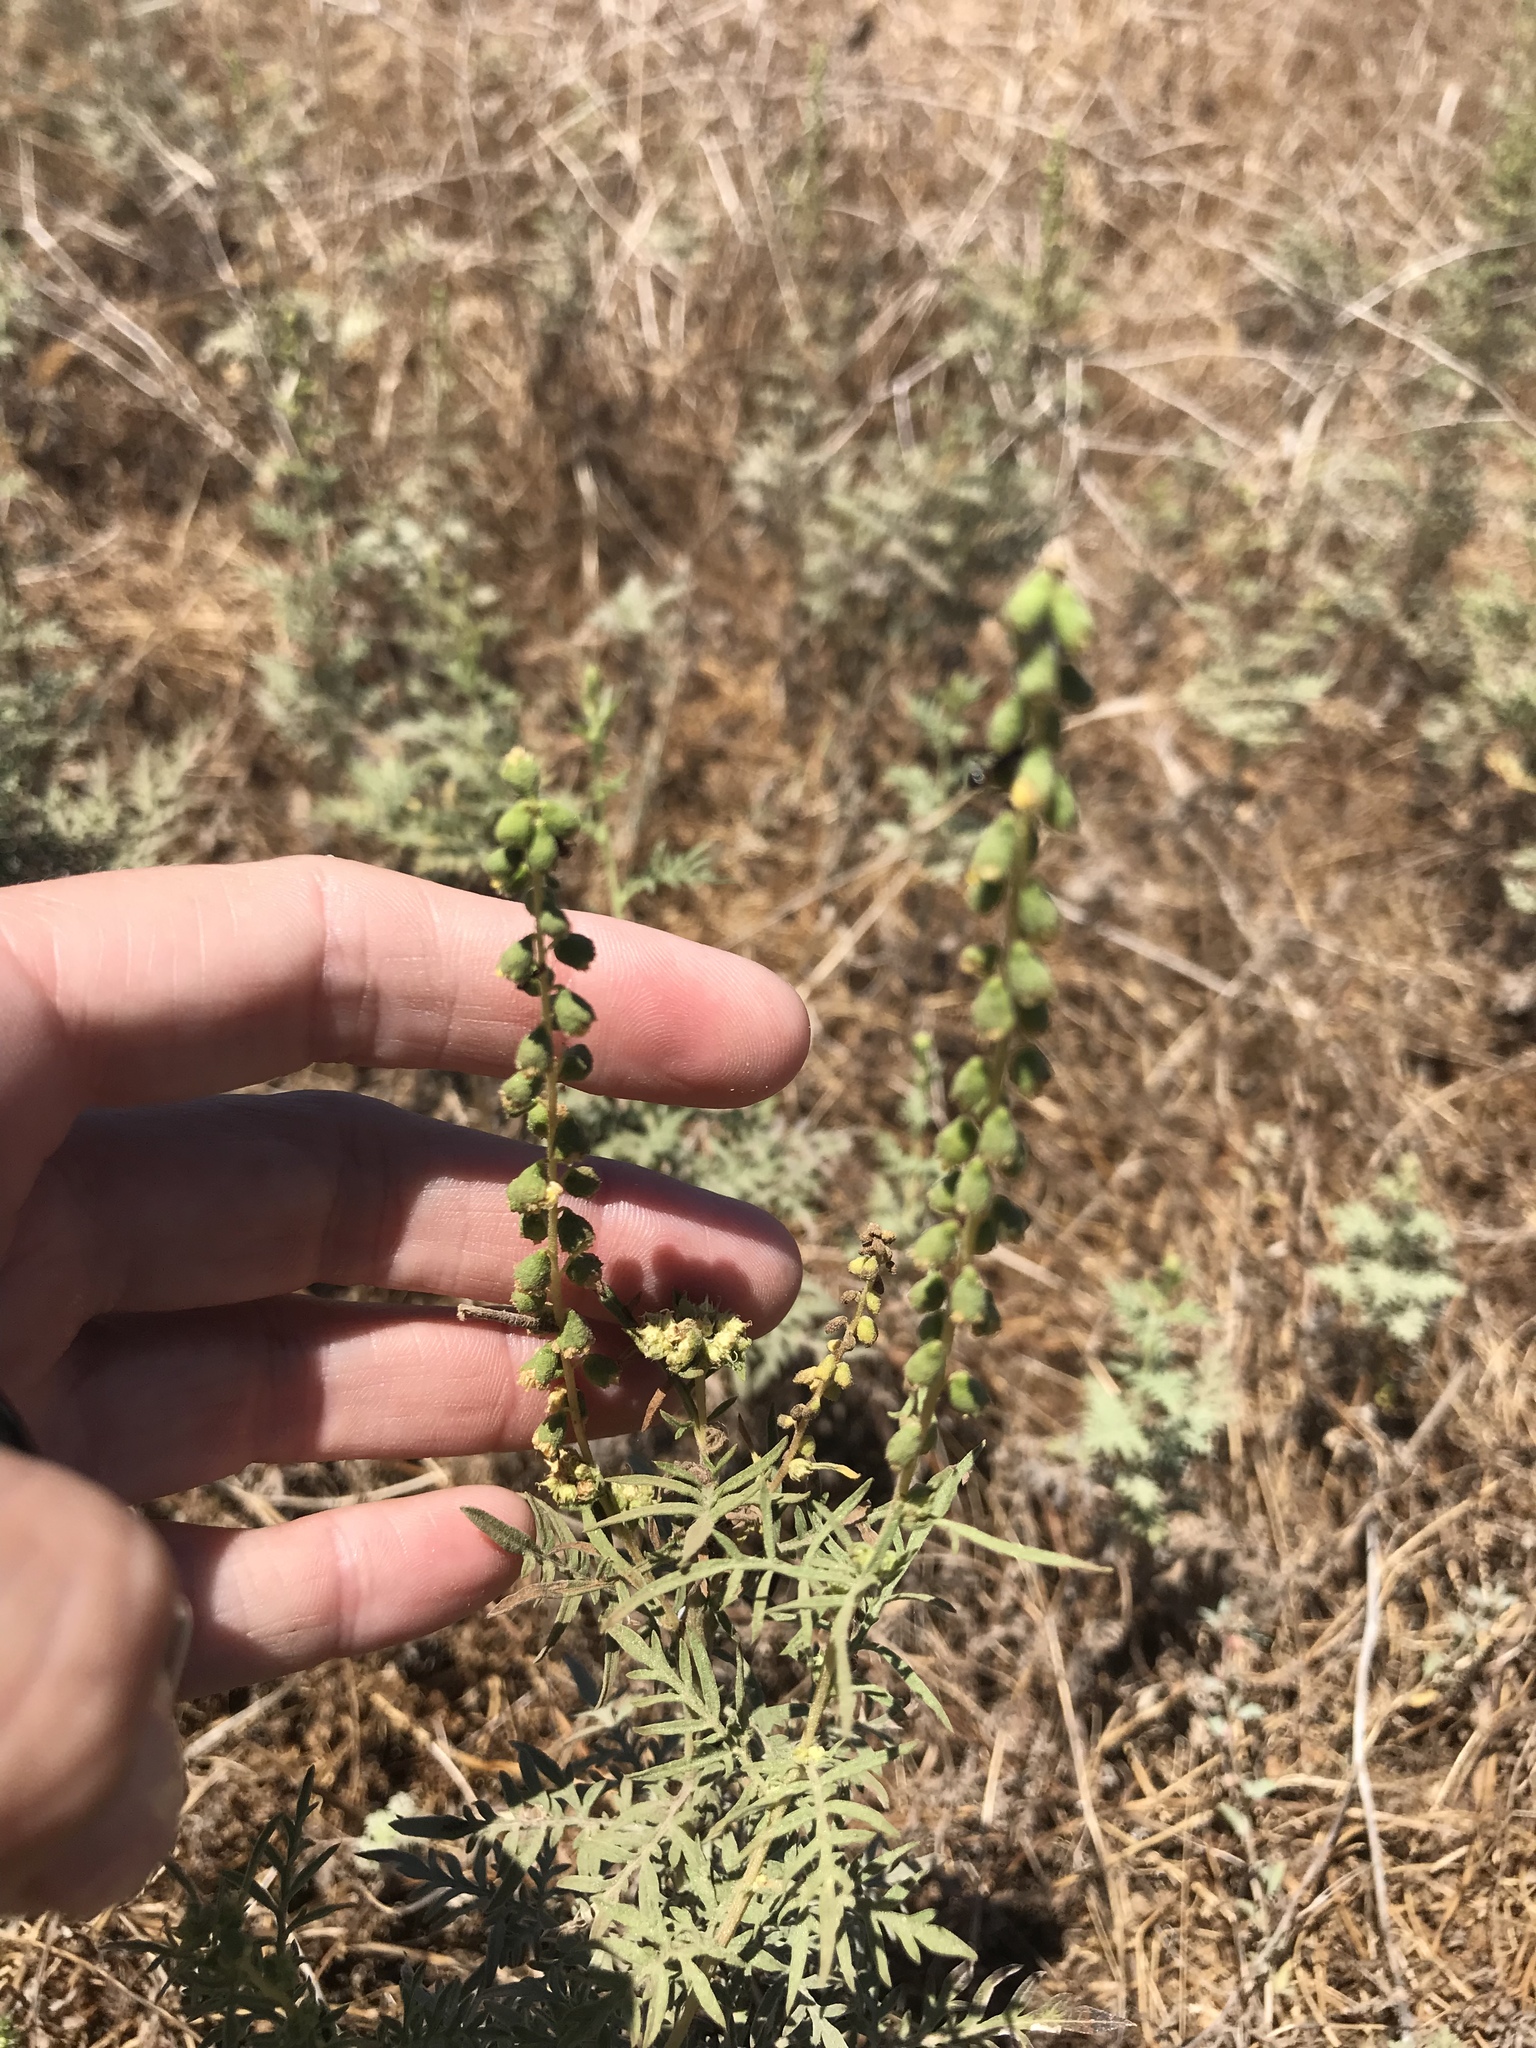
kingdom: Plantae
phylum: Tracheophyta
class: Magnoliopsida
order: Asterales
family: Asteraceae
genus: Ambrosia
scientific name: Ambrosia confertiflora
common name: Bur ragweed
